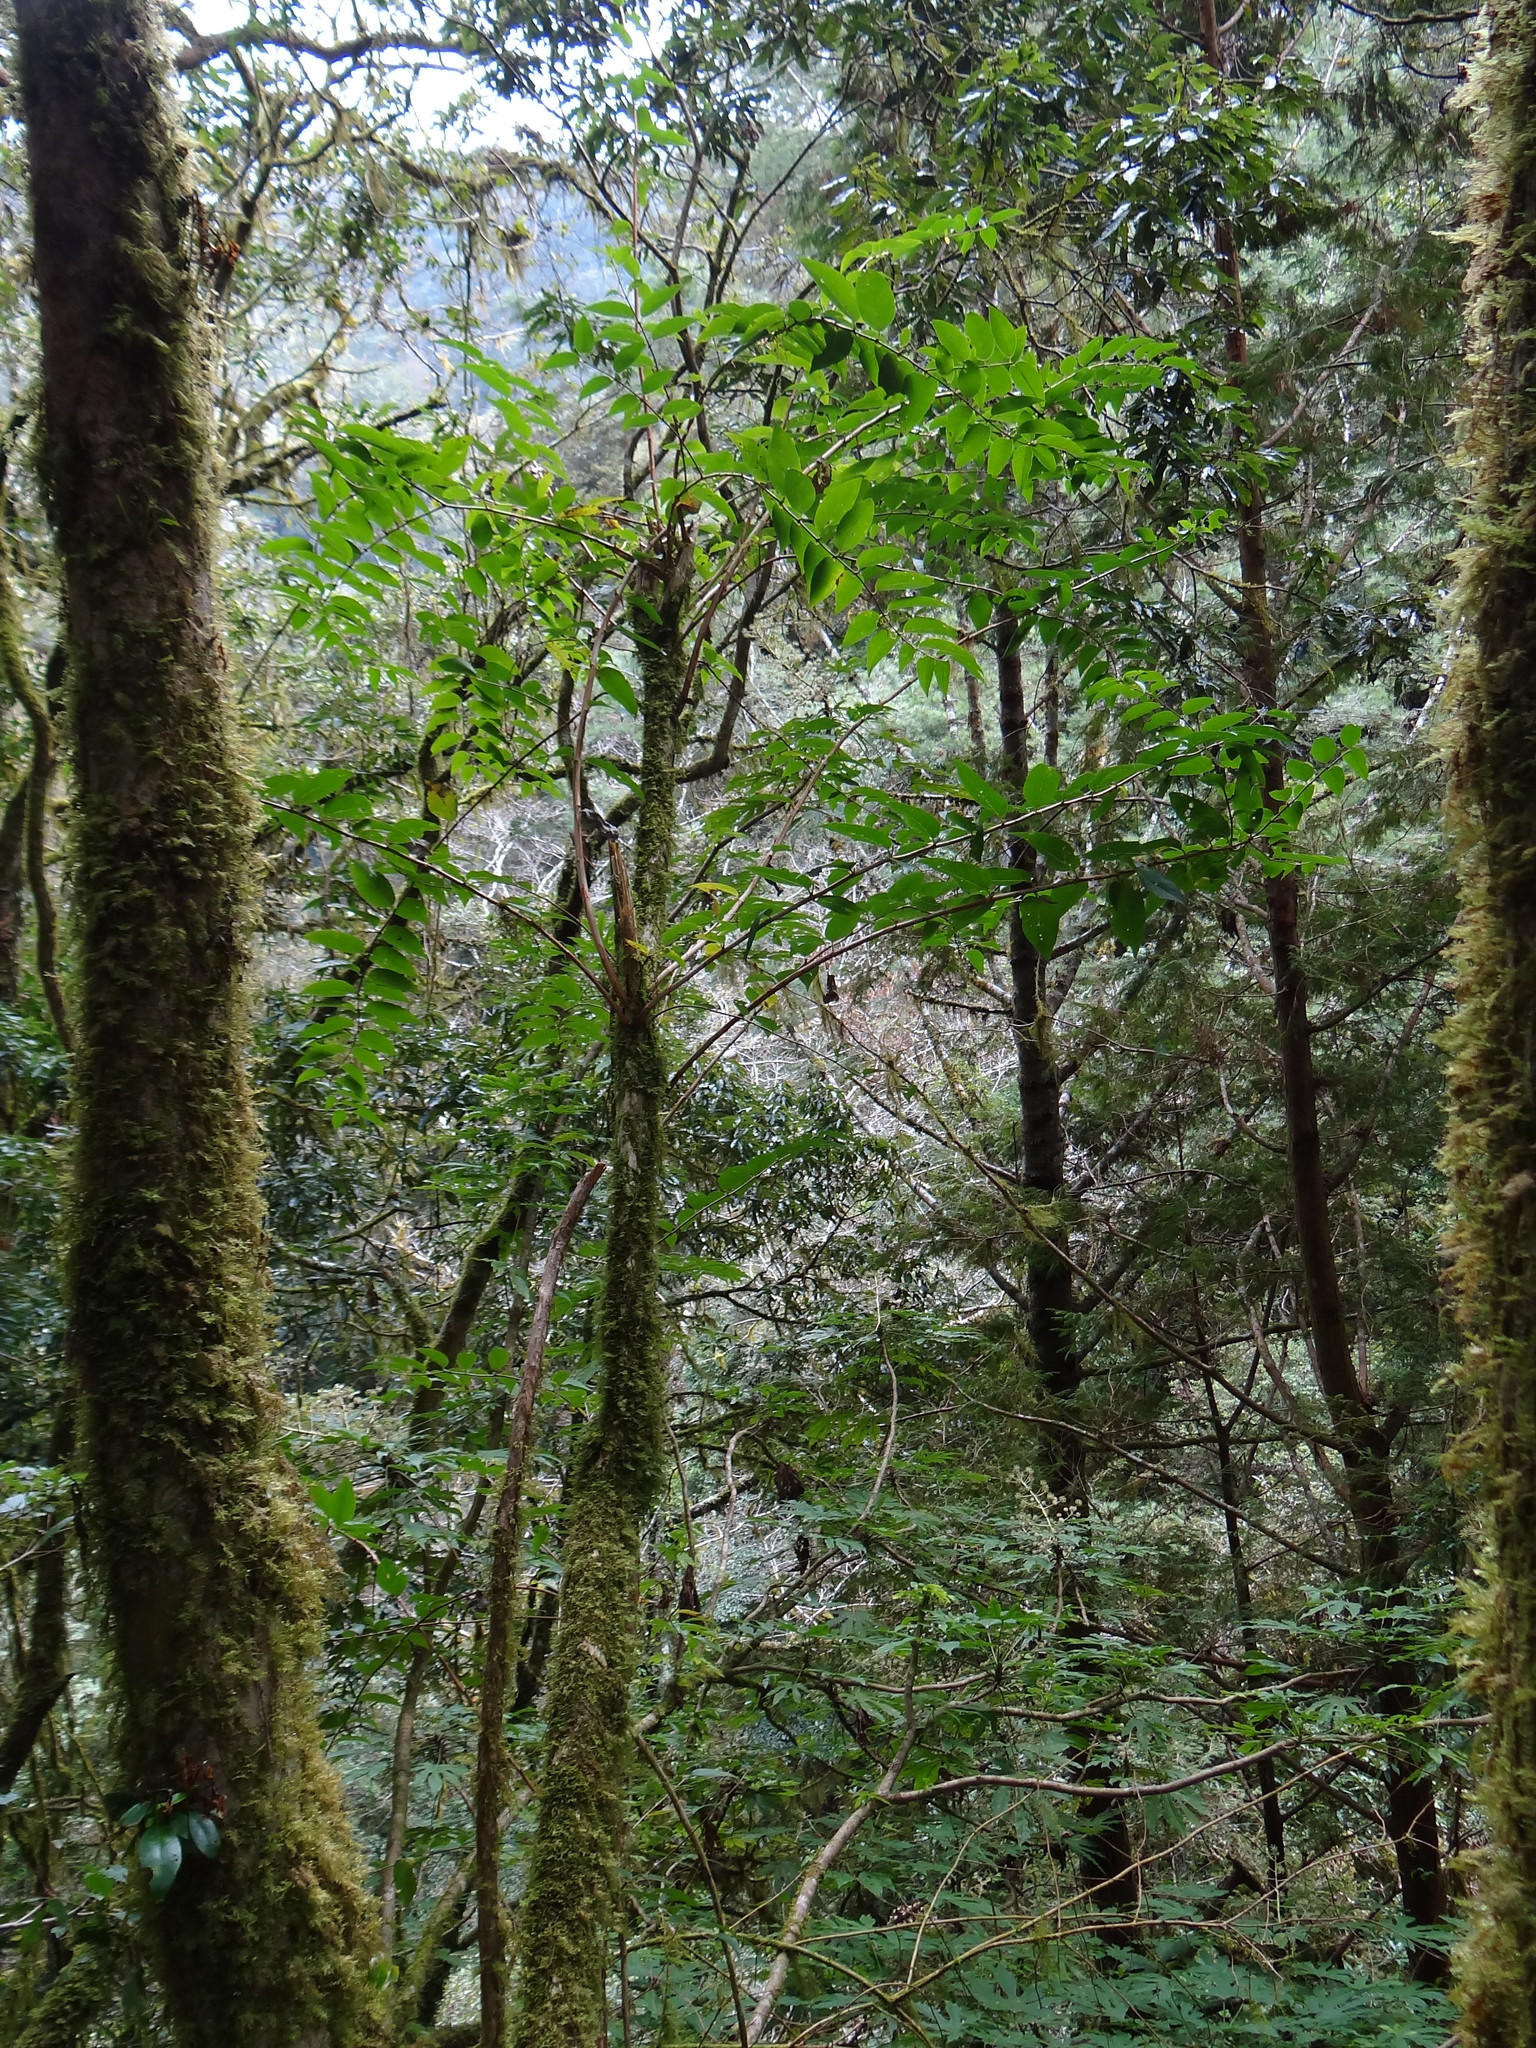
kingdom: Plantae
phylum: Tracheophyta
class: Magnoliopsida
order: Cornales
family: Hydrangeaceae
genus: Deutzia
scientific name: Deutzia pulchra
